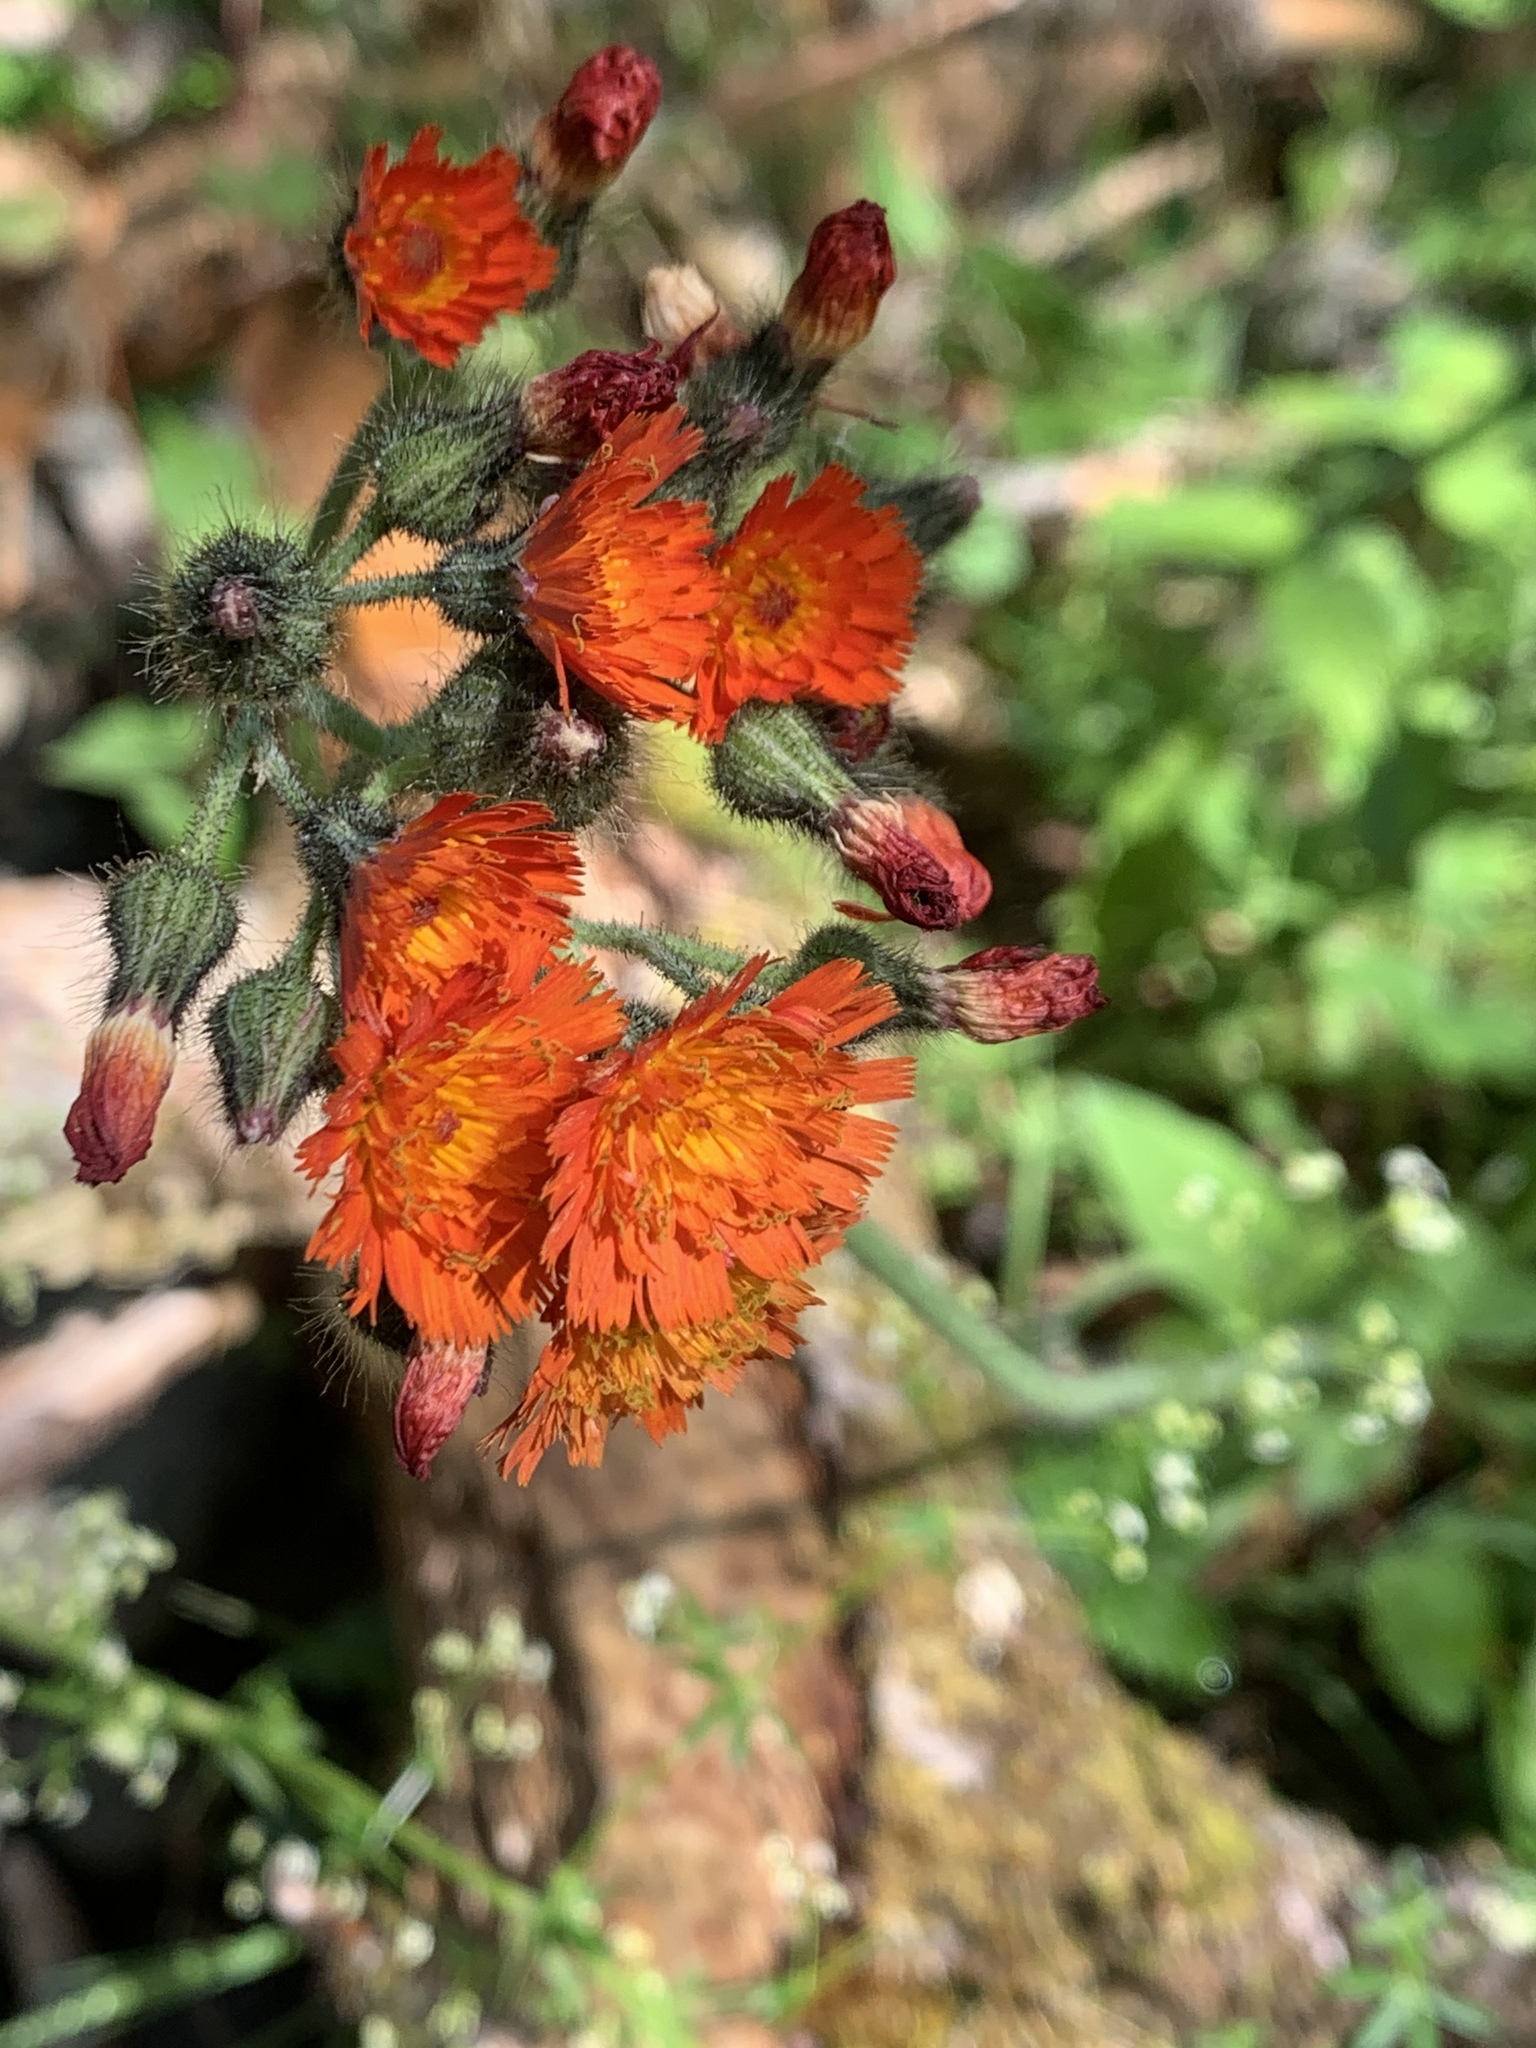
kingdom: Plantae
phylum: Tracheophyta
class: Magnoliopsida
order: Asterales
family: Asteraceae
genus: Pilosella
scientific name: Pilosella aurantiaca
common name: Fox-and-cubs
